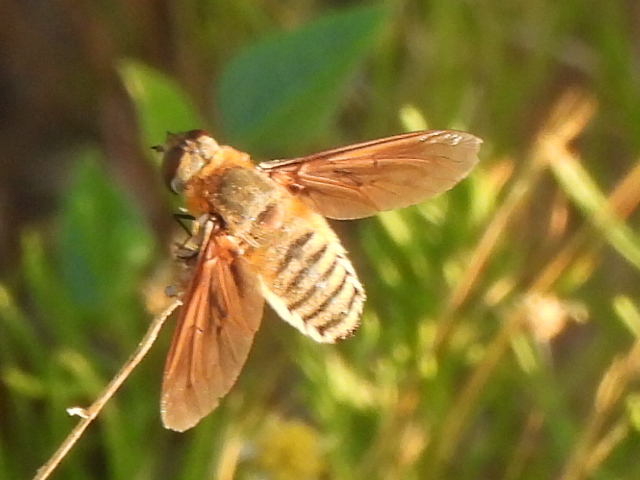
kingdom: Animalia
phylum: Arthropoda
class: Insecta
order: Diptera
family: Bombyliidae
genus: Poecilanthrax
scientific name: Poecilanthrax lucifer
